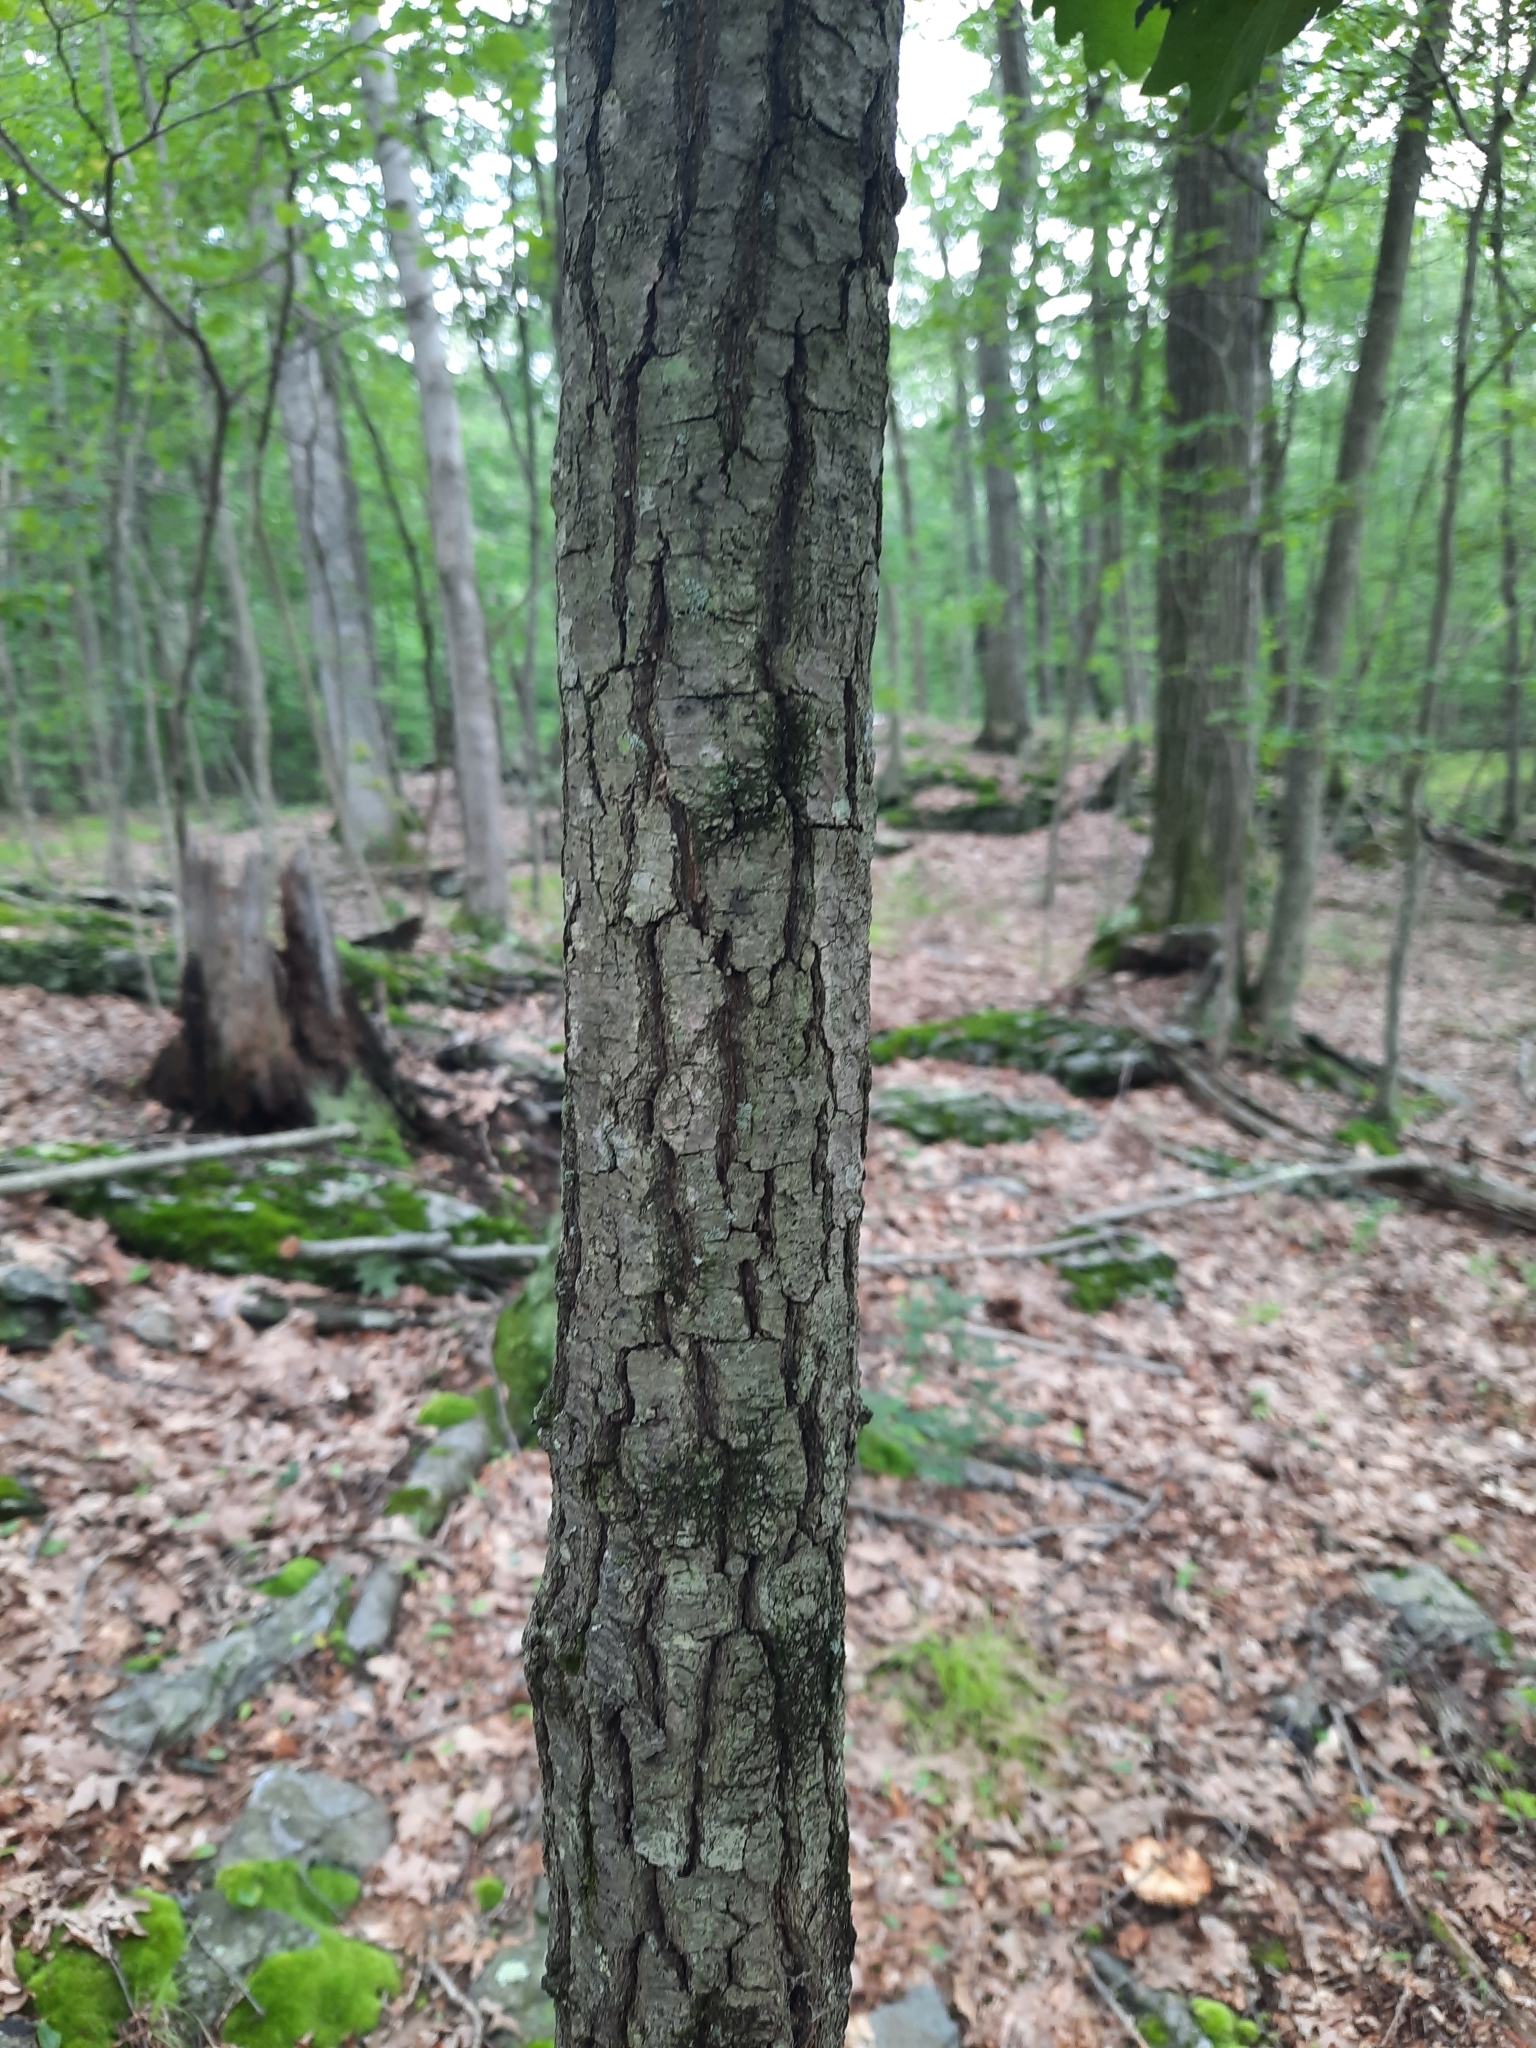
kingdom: Plantae
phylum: Tracheophyta
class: Magnoliopsida
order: Fagales
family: Fagaceae
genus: Quercus
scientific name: Quercus montana
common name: Chestnut oak
